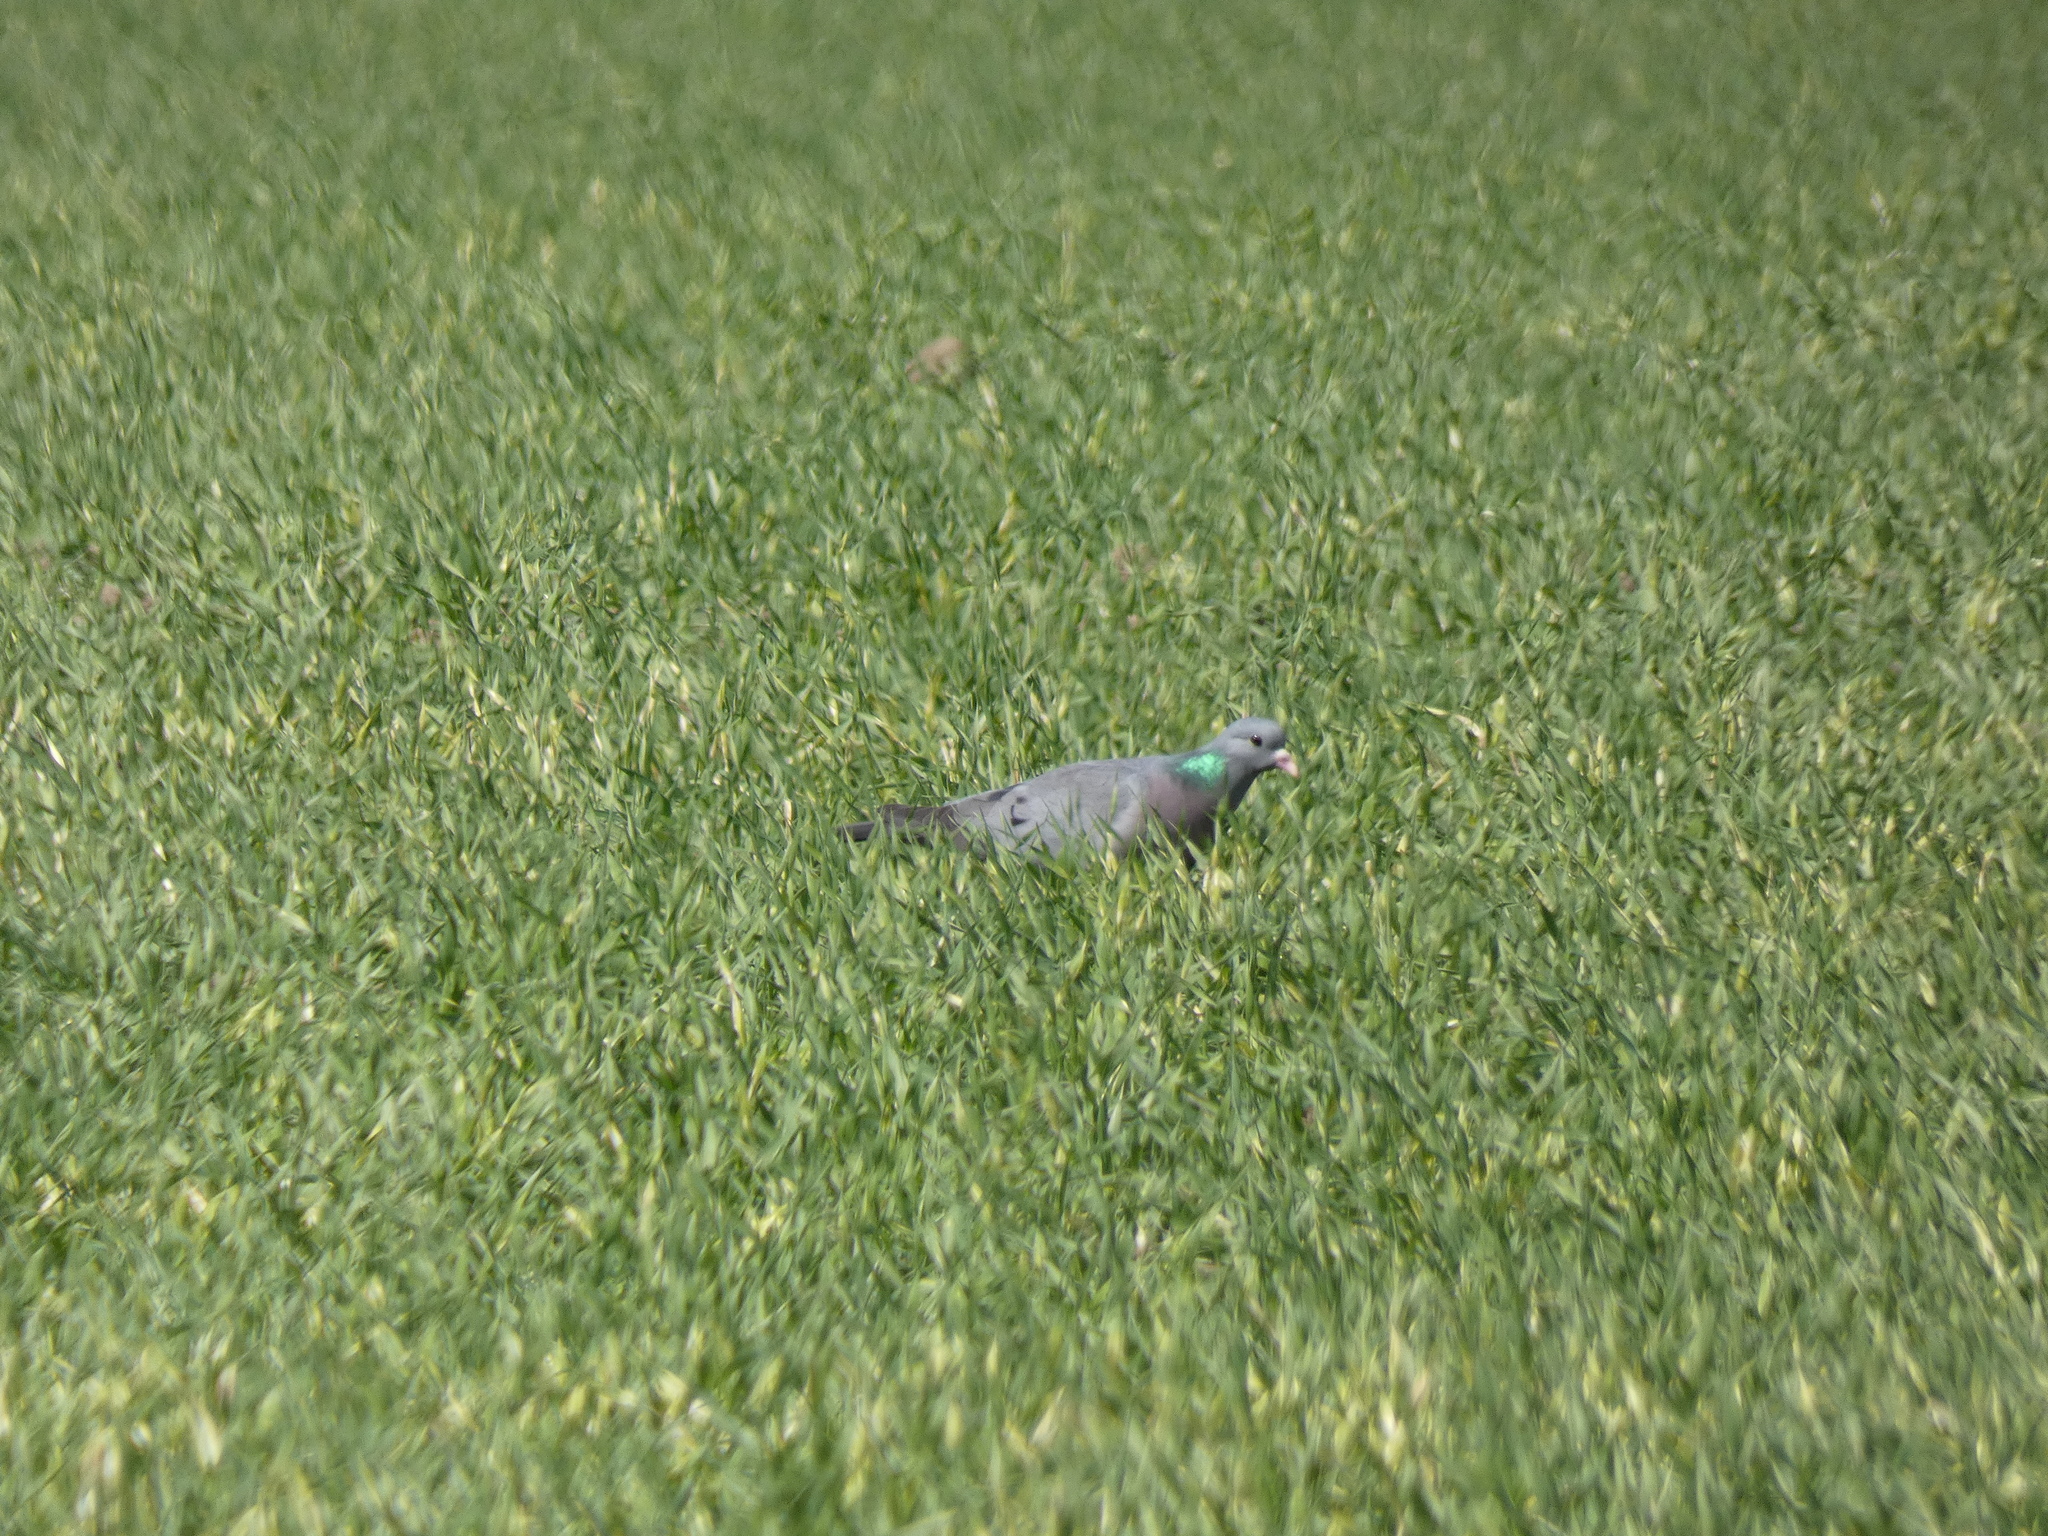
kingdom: Animalia
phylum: Chordata
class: Aves
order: Columbiformes
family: Columbidae
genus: Columba
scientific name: Columba oenas
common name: Stock dove
